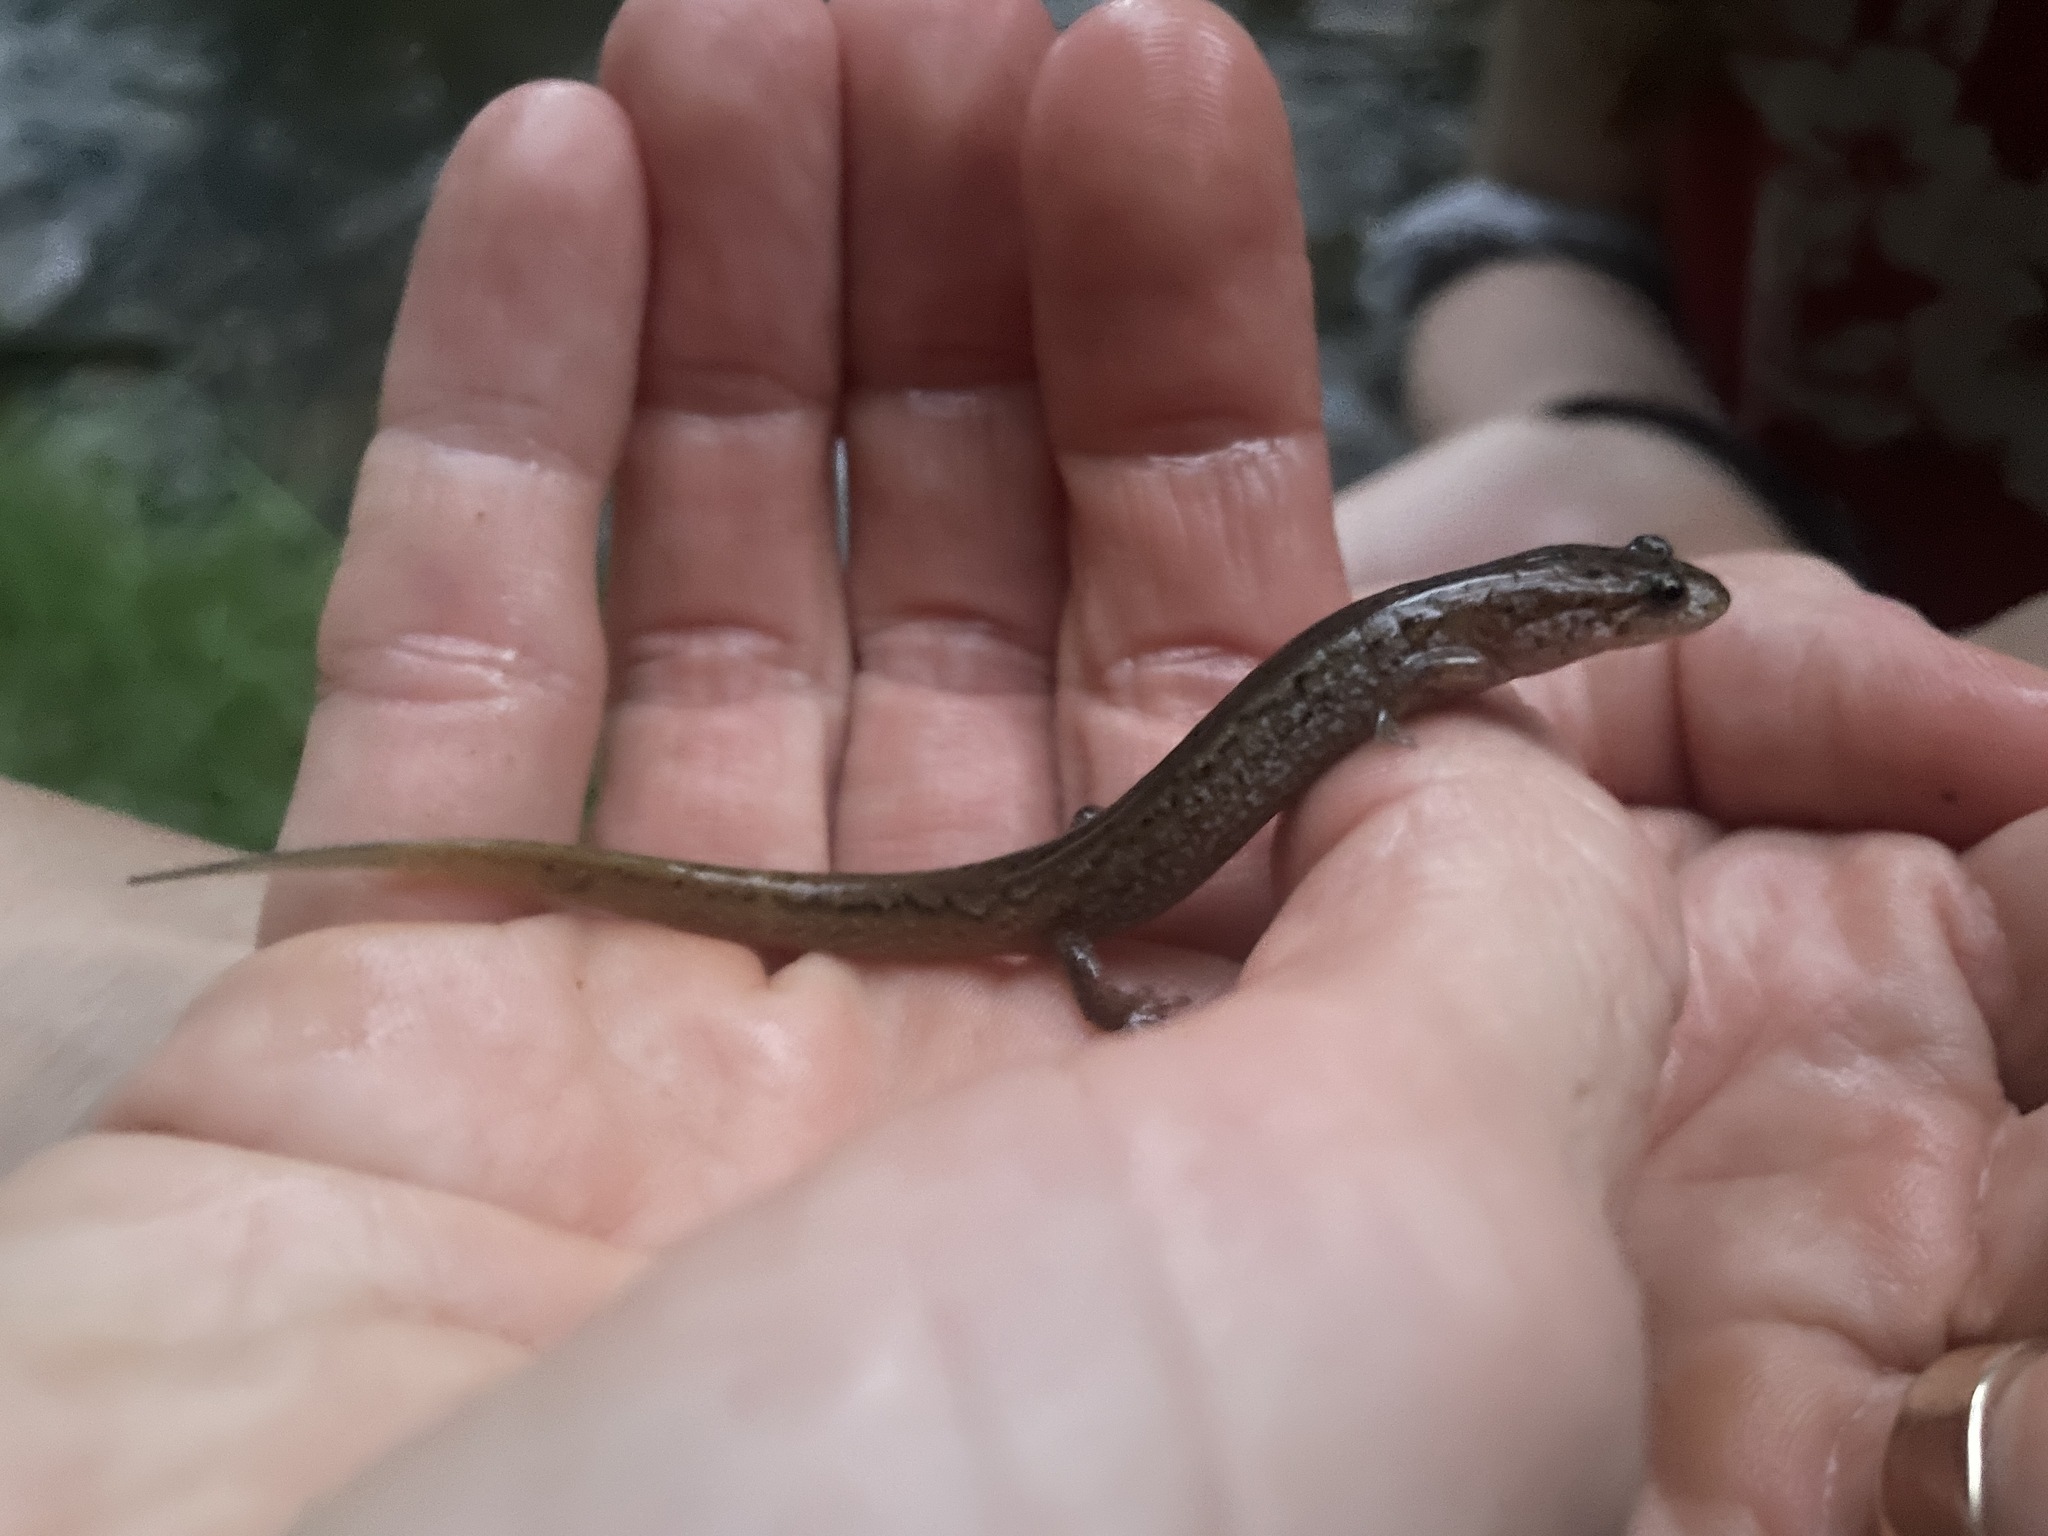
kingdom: Animalia
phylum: Chordata
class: Amphibia
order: Caudata
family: Plethodontidae
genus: Desmognathus
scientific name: Desmognathus fuscus
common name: Northern dusky salamander
